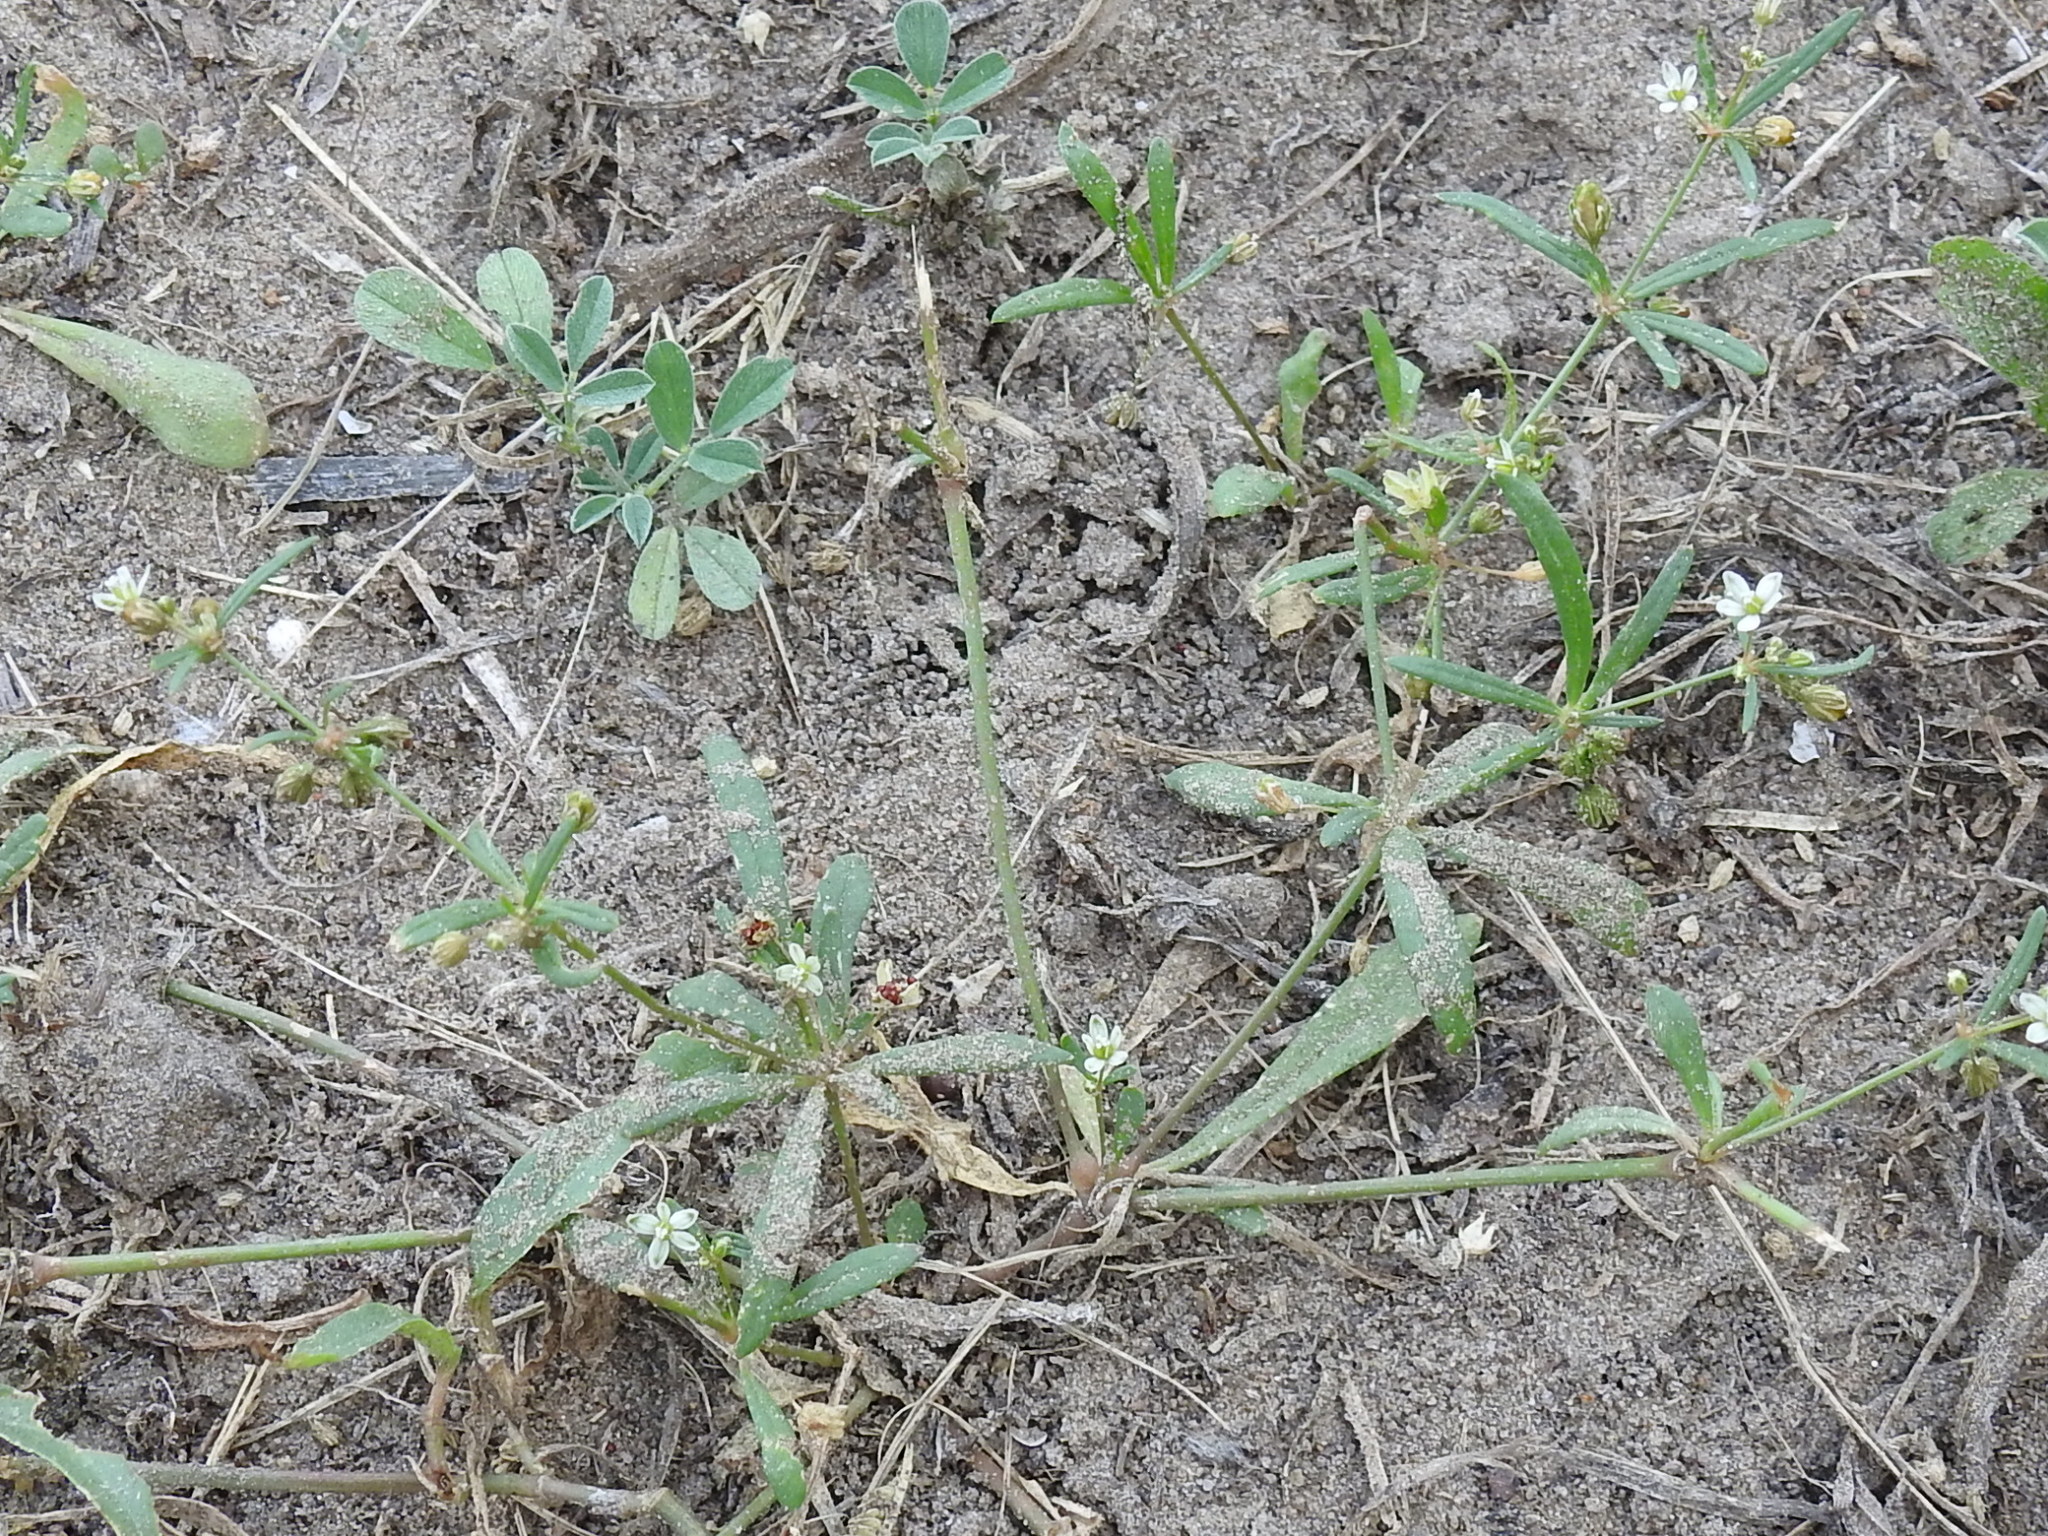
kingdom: Plantae
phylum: Tracheophyta
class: Magnoliopsida
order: Caryophyllales
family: Molluginaceae
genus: Mollugo
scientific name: Mollugo verticillata
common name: Green carpetweed
